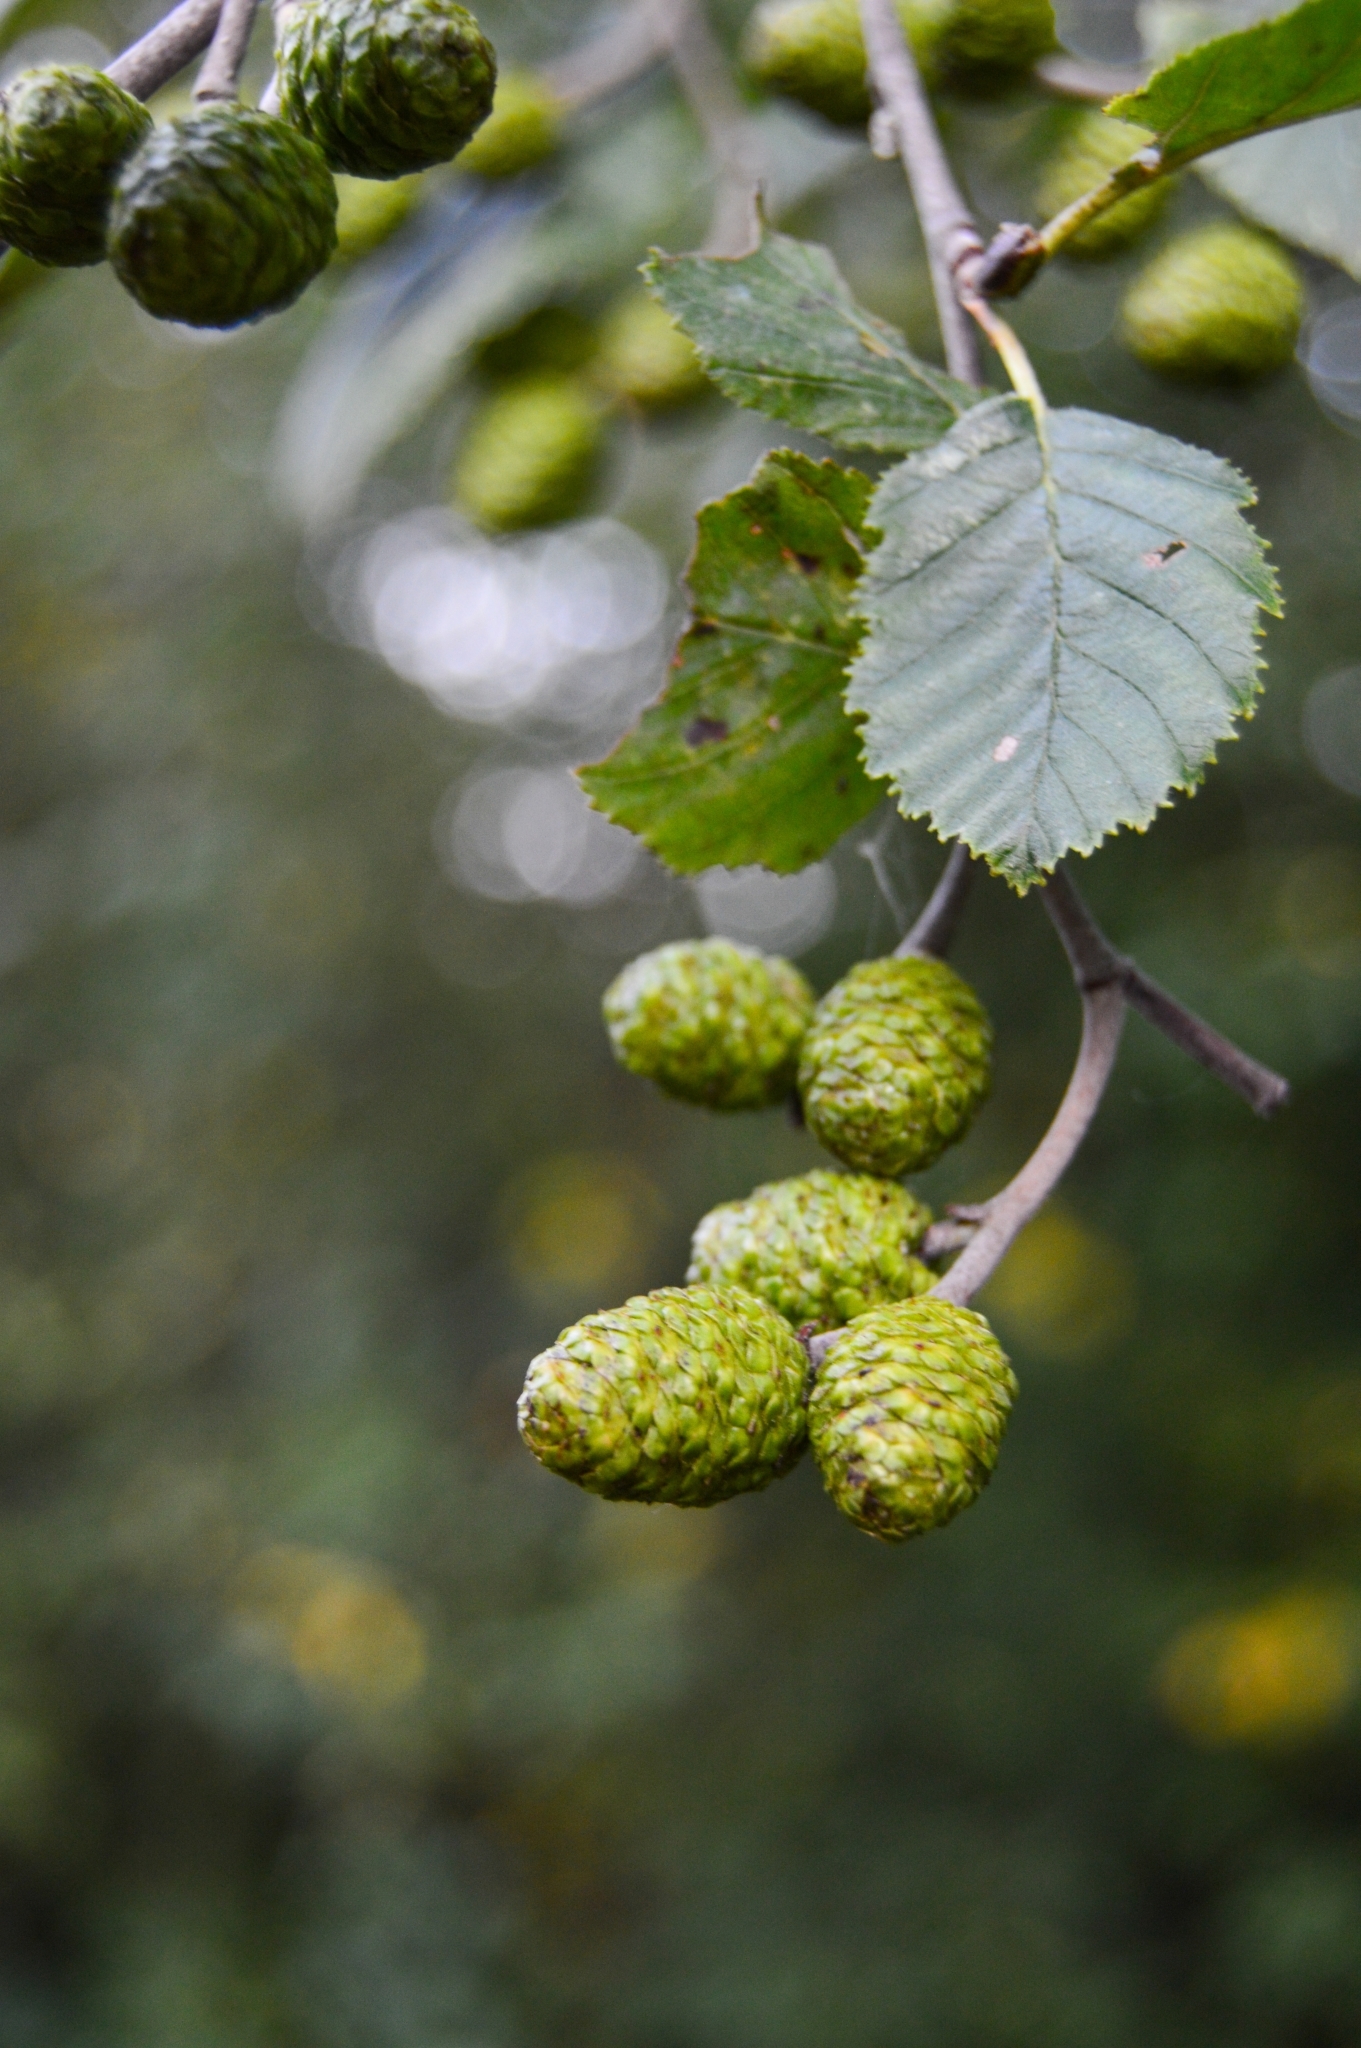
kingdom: Plantae
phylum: Tracheophyta
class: Magnoliopsida
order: Fagales
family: Betulaceae
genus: Alnus
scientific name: Alnus incana
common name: Grey alder
